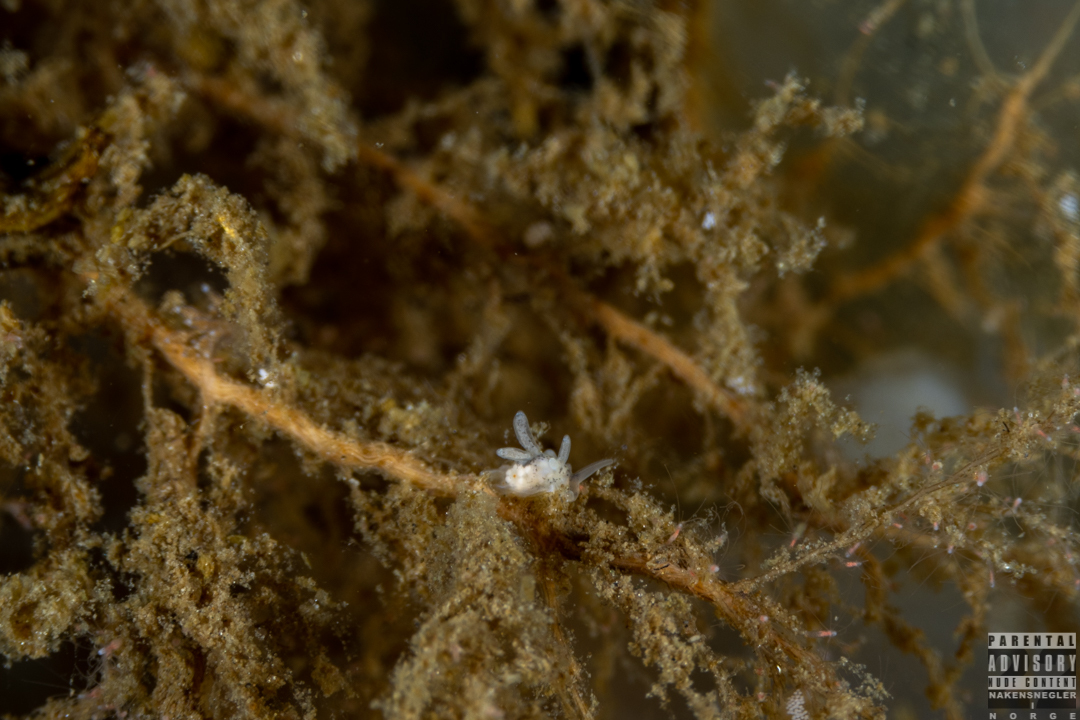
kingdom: Animalia
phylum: Mollusca
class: Gastropoda
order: Nudibranchia
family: Trinchesiidae
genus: Tenellia
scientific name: Tenellia adspersa
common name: Lagoon sea slug
